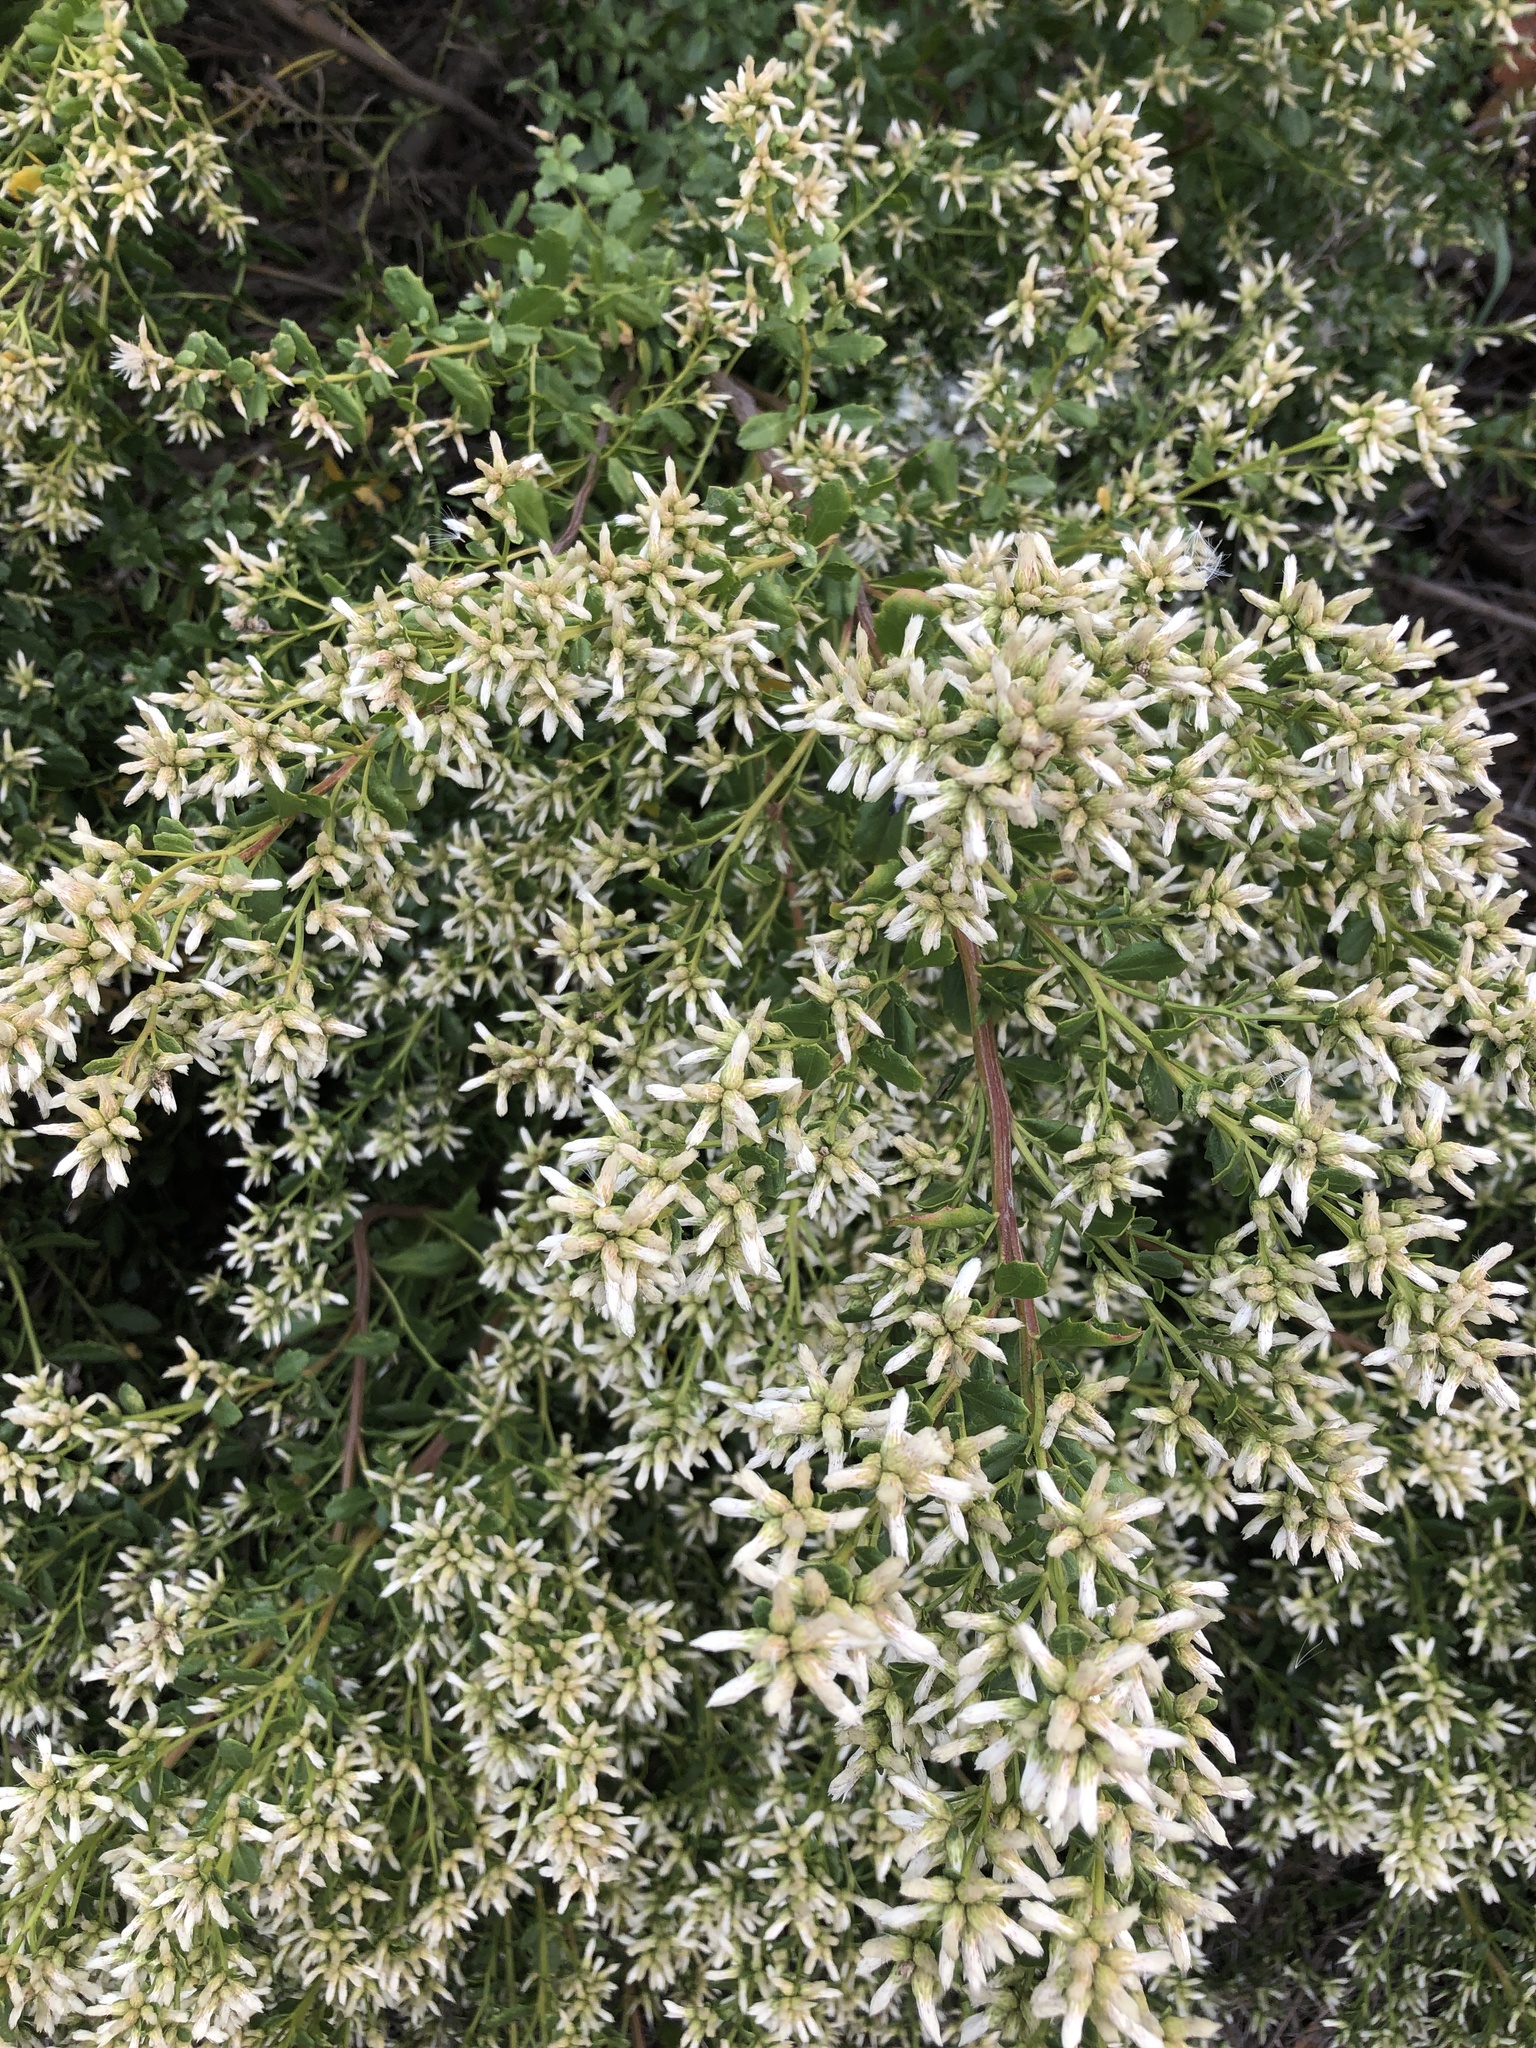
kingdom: Plantae
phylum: Tracheophyta
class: Magnoliopsida
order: Asterales
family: Asteraceae
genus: Baccharis
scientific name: Baccharis pilularis
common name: Coyotebrush
